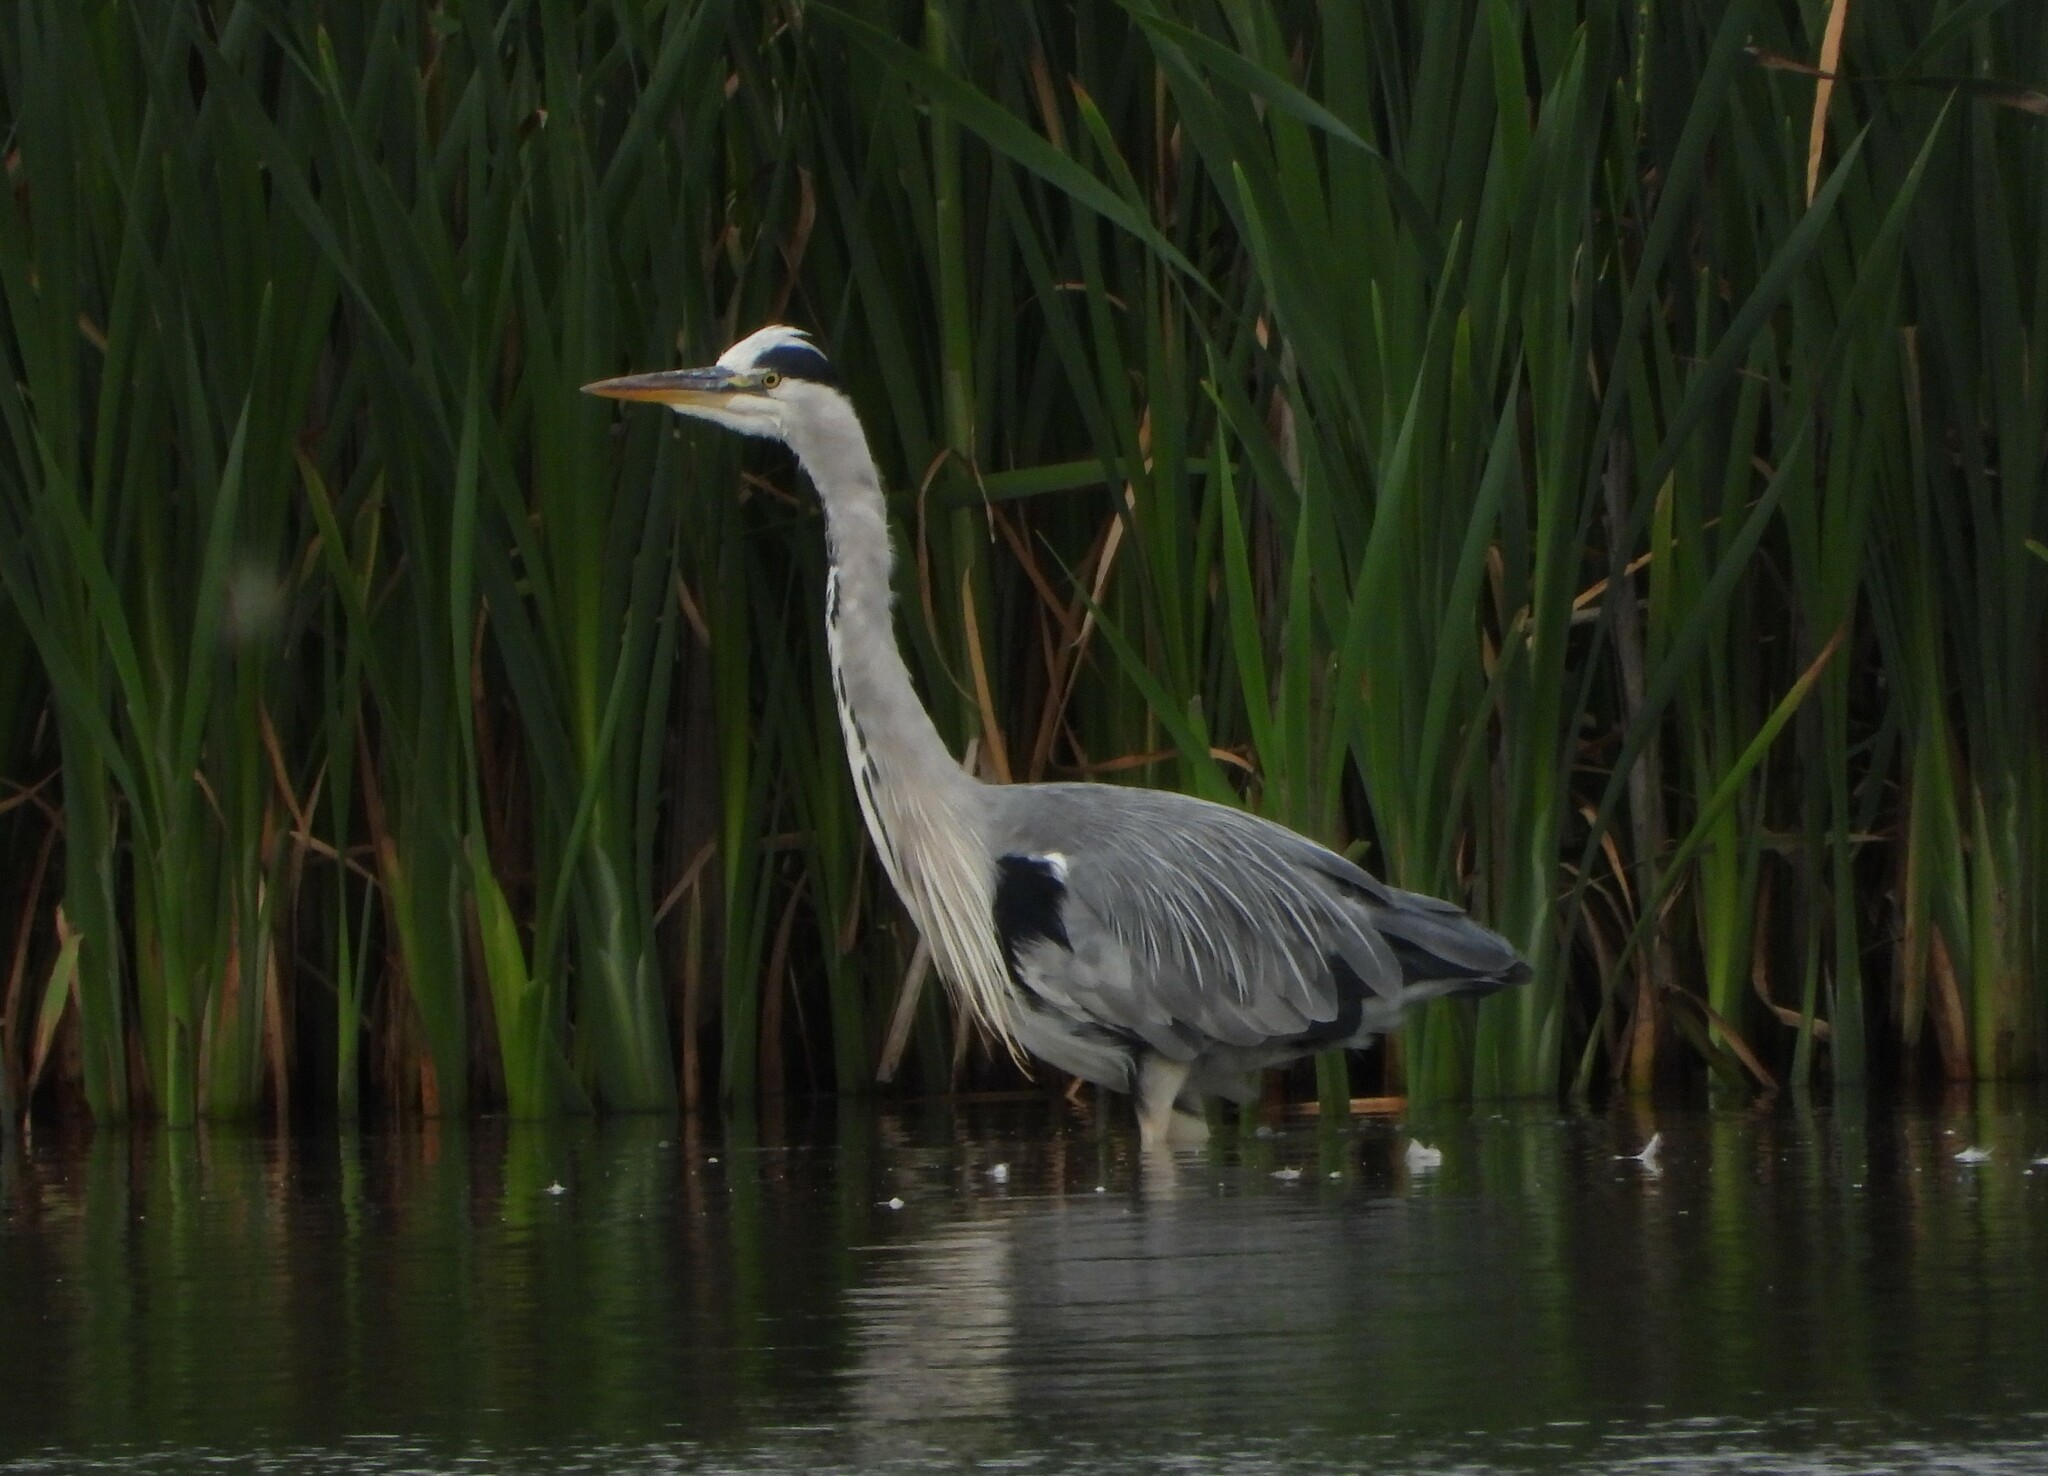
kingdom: Animalia
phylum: Chordata
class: Aves
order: Pelecaniformes
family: Ardeidae
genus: Ardea
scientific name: Ardea cinerea
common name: Grey heron
